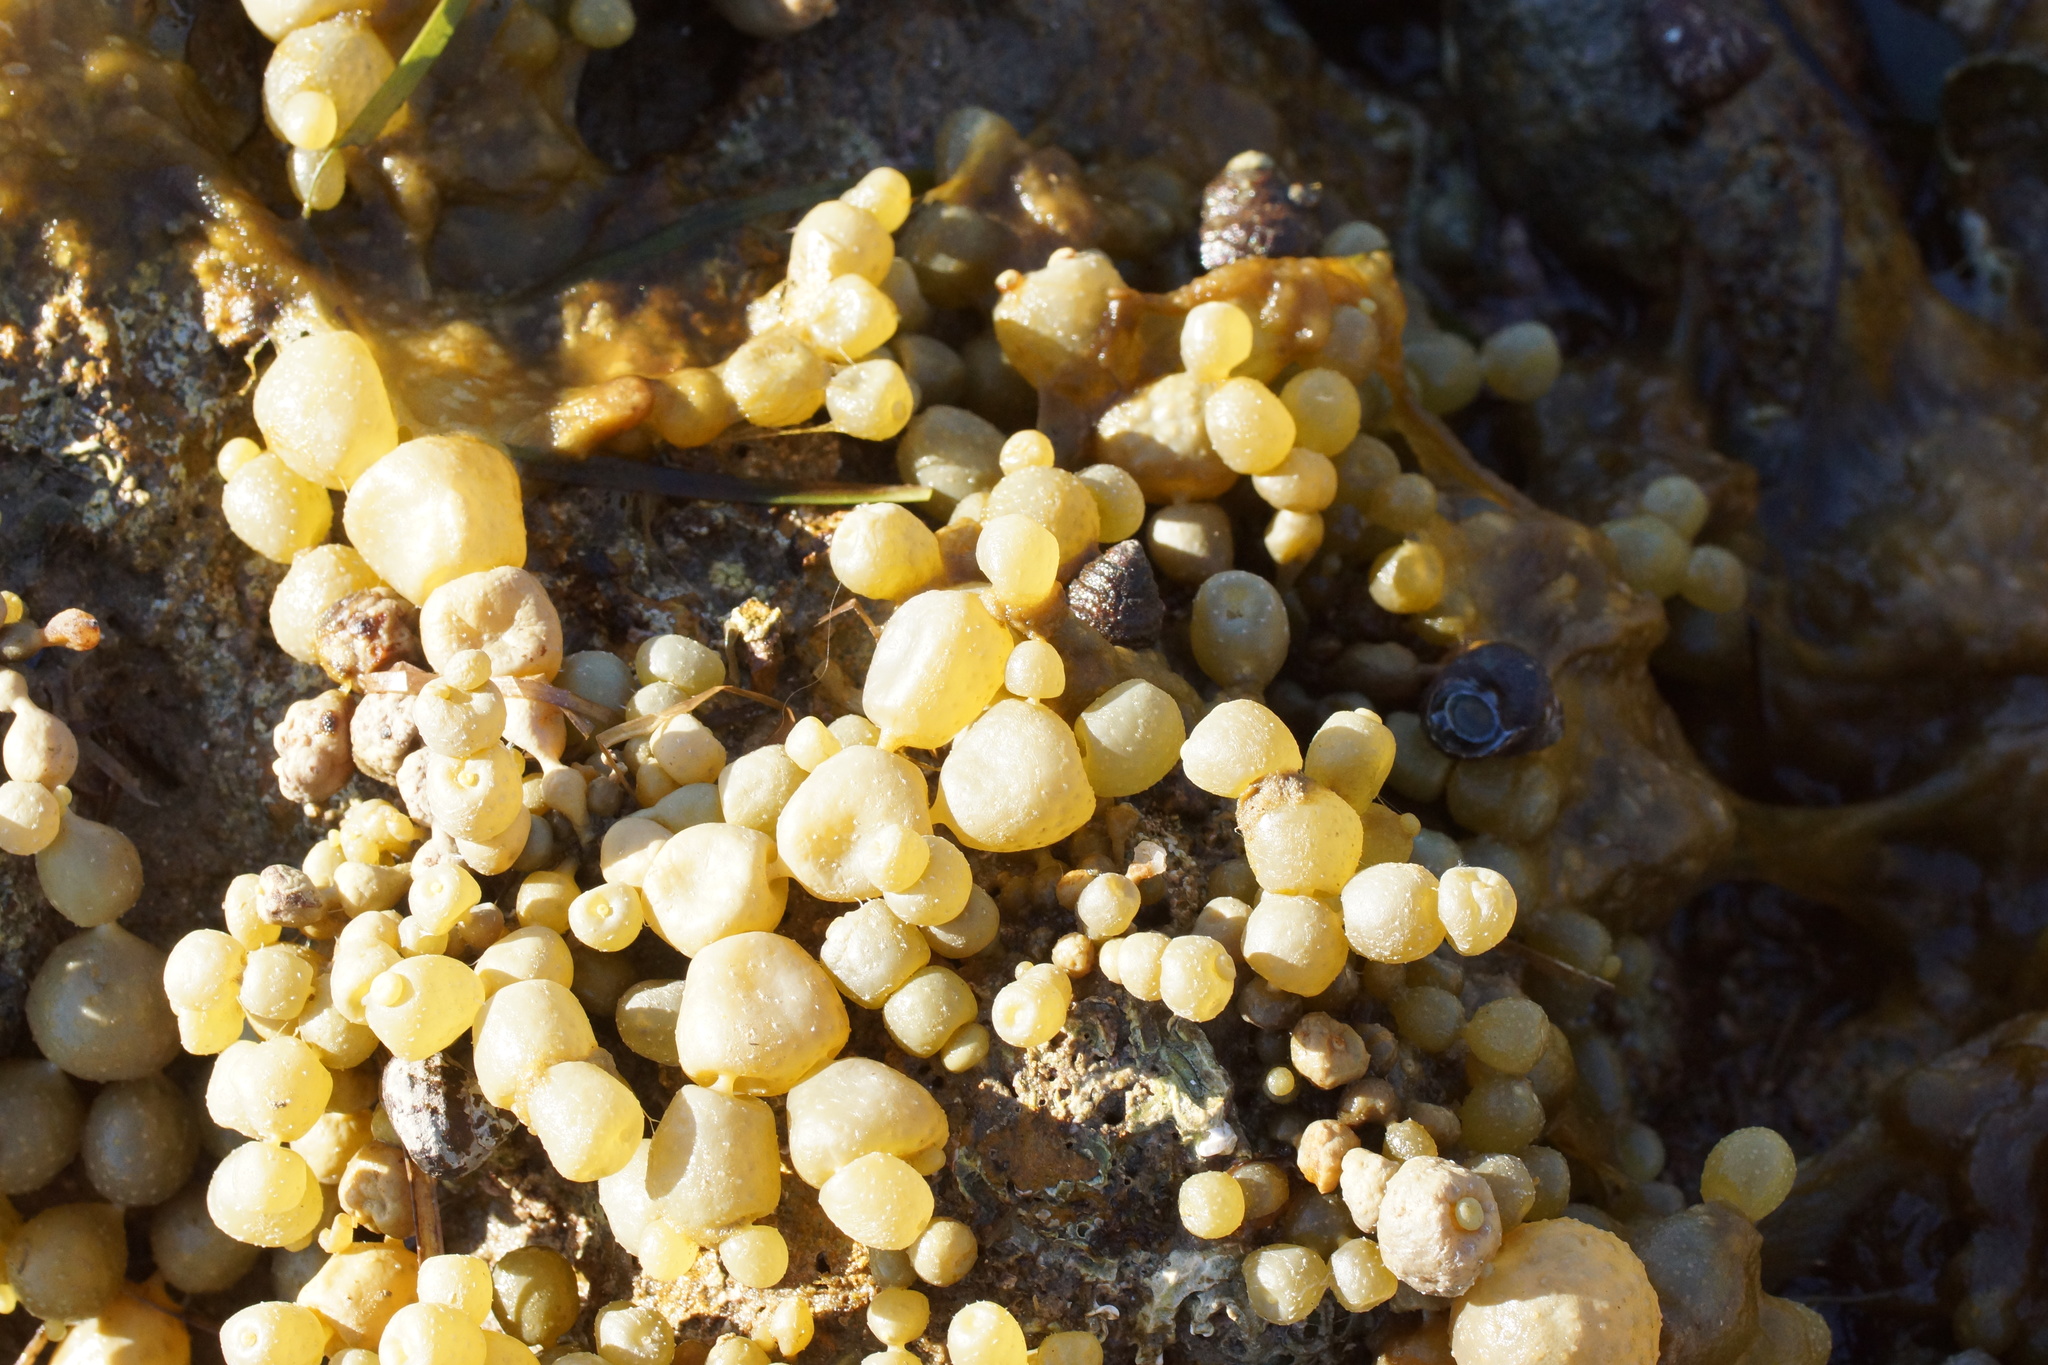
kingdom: Chromista
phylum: Ochrophyta
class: Phaeophyceae
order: Fucales
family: Hormosiraceae
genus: Hormosira
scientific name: Hormosira banksii
